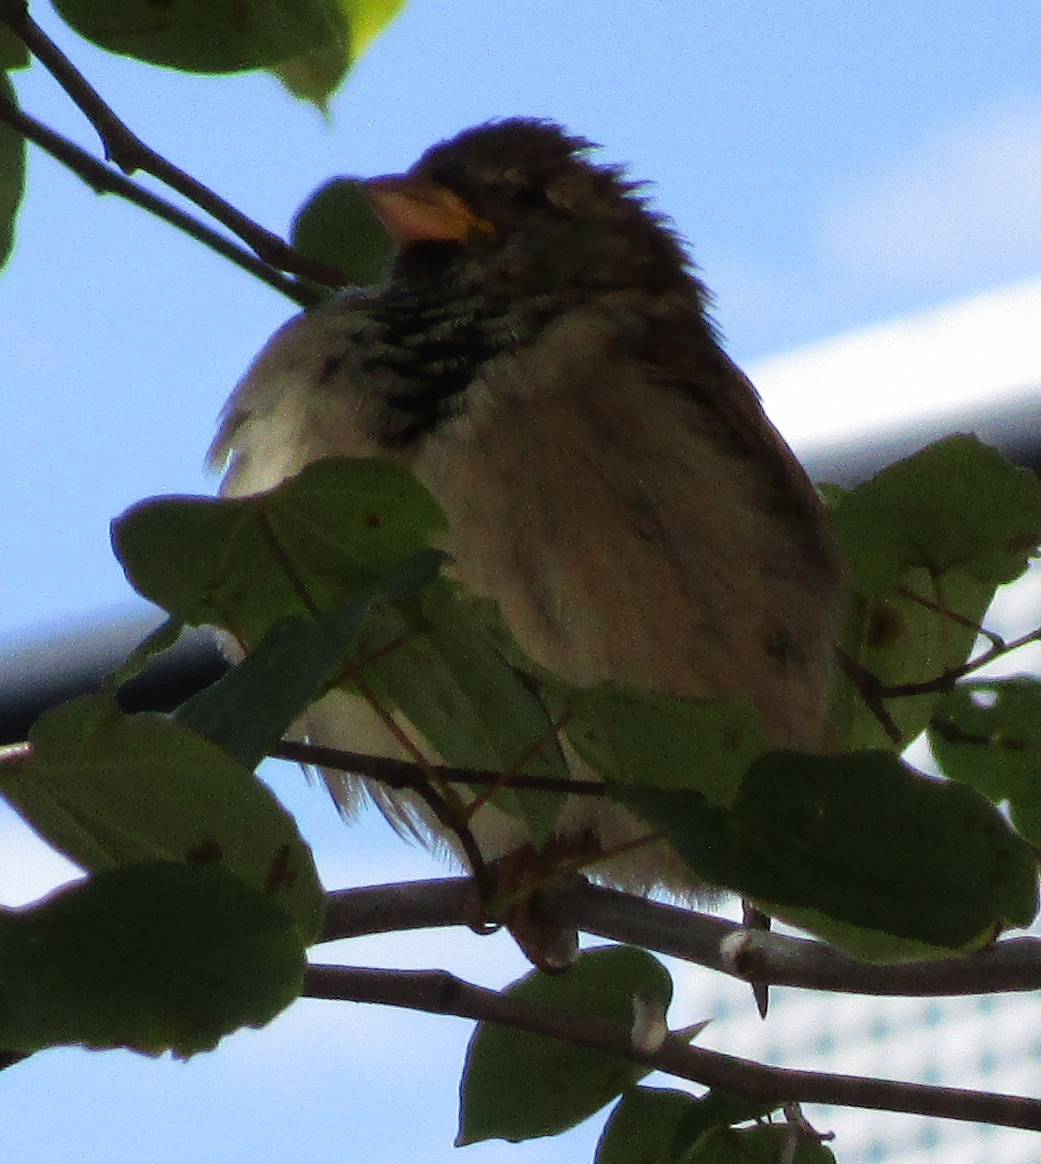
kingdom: Animalia
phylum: Chordata
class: Aves
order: Passeriformes
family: Passeridae
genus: Passer
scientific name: Passer domesticus
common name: House sparrow
